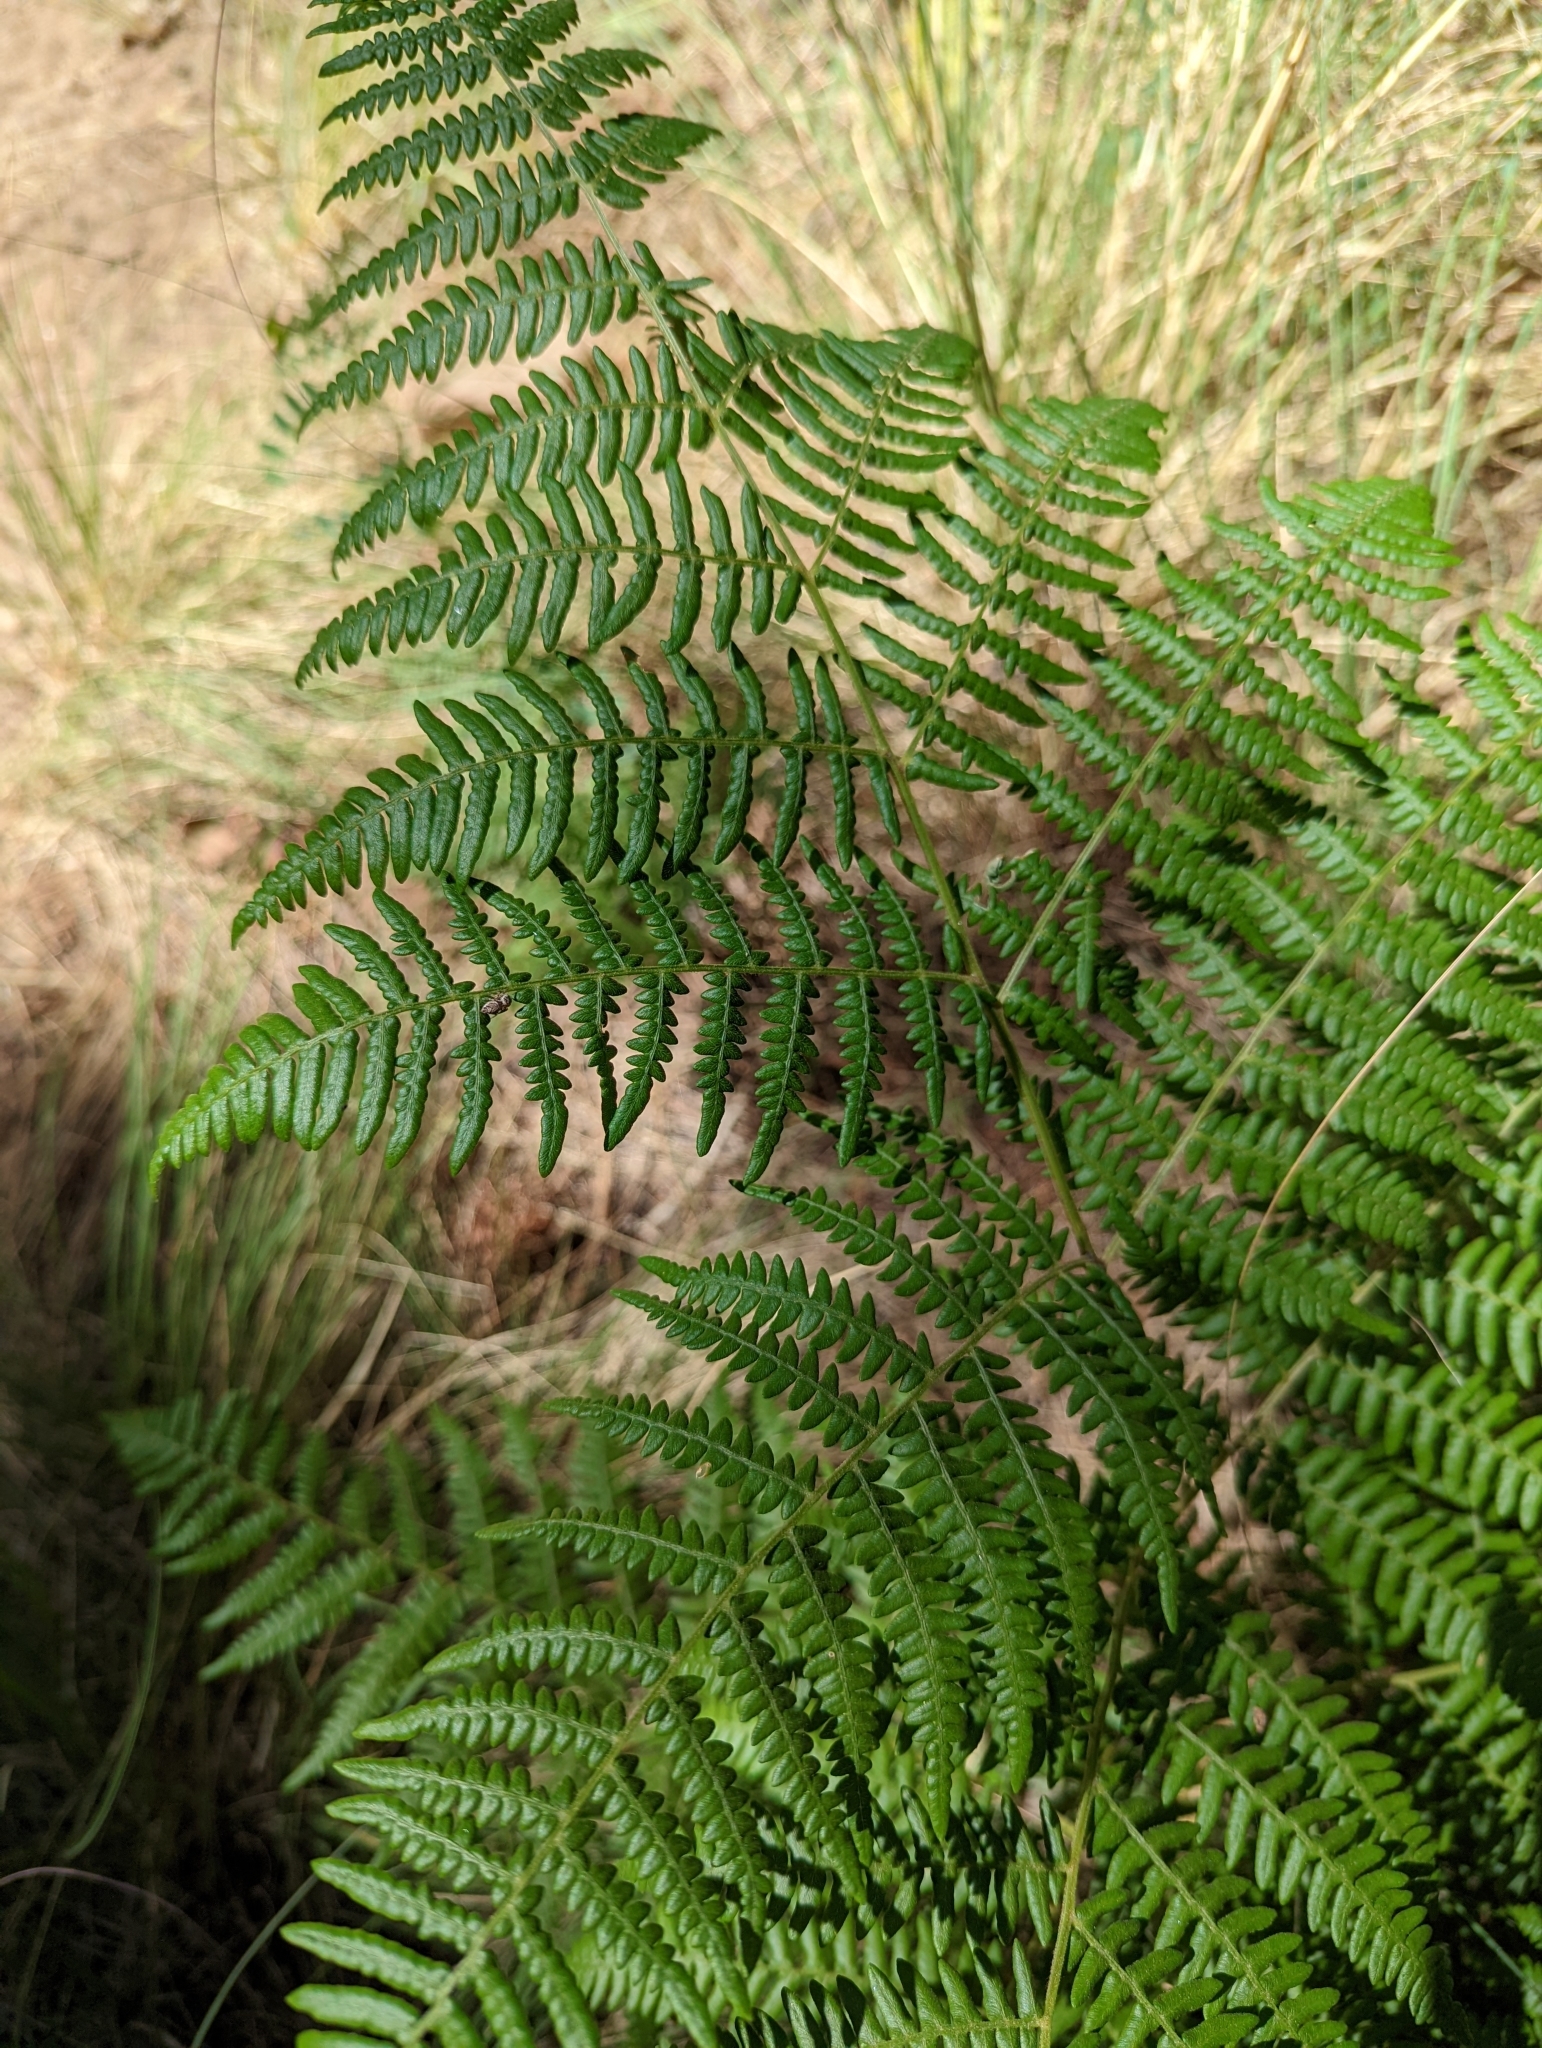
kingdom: Plantae
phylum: Tracheophyta
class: Polypodiopsida
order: Polypodiales
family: Dennstaedtiaceae
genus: Pteridium
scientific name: Pteridium aquilinum
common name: Bracken
